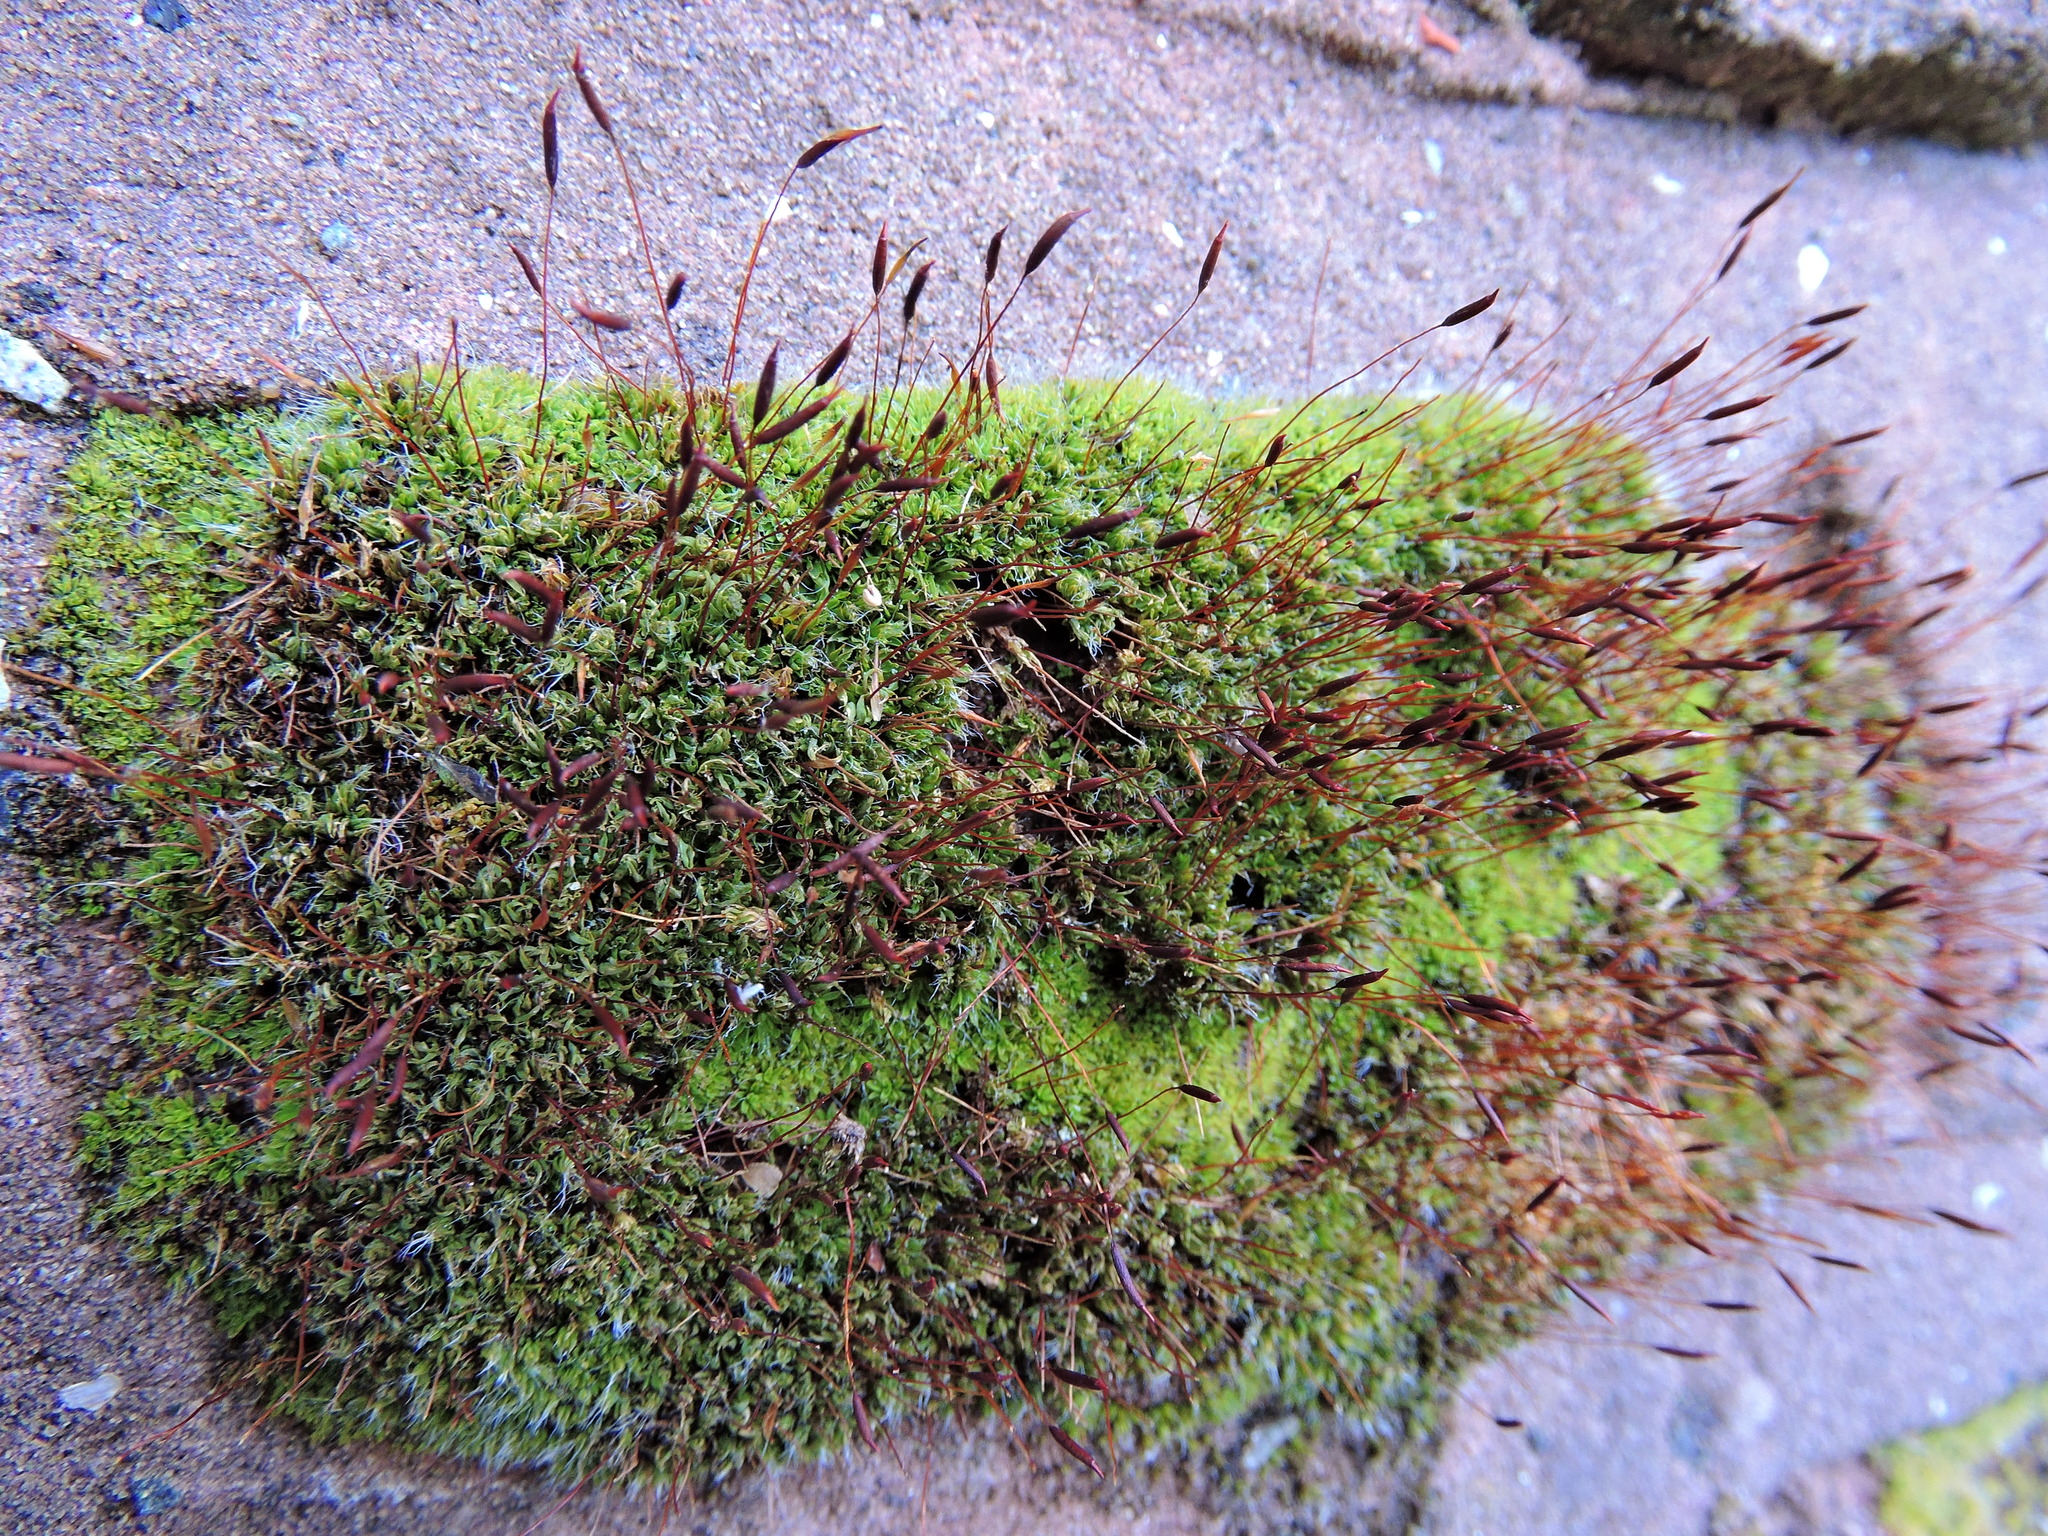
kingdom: Plantae
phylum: Bryophyta
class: Bryopsida
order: Pottiales
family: Pottiaceae
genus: Tortula
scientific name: Tortula muralis
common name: Wall screw-moss
